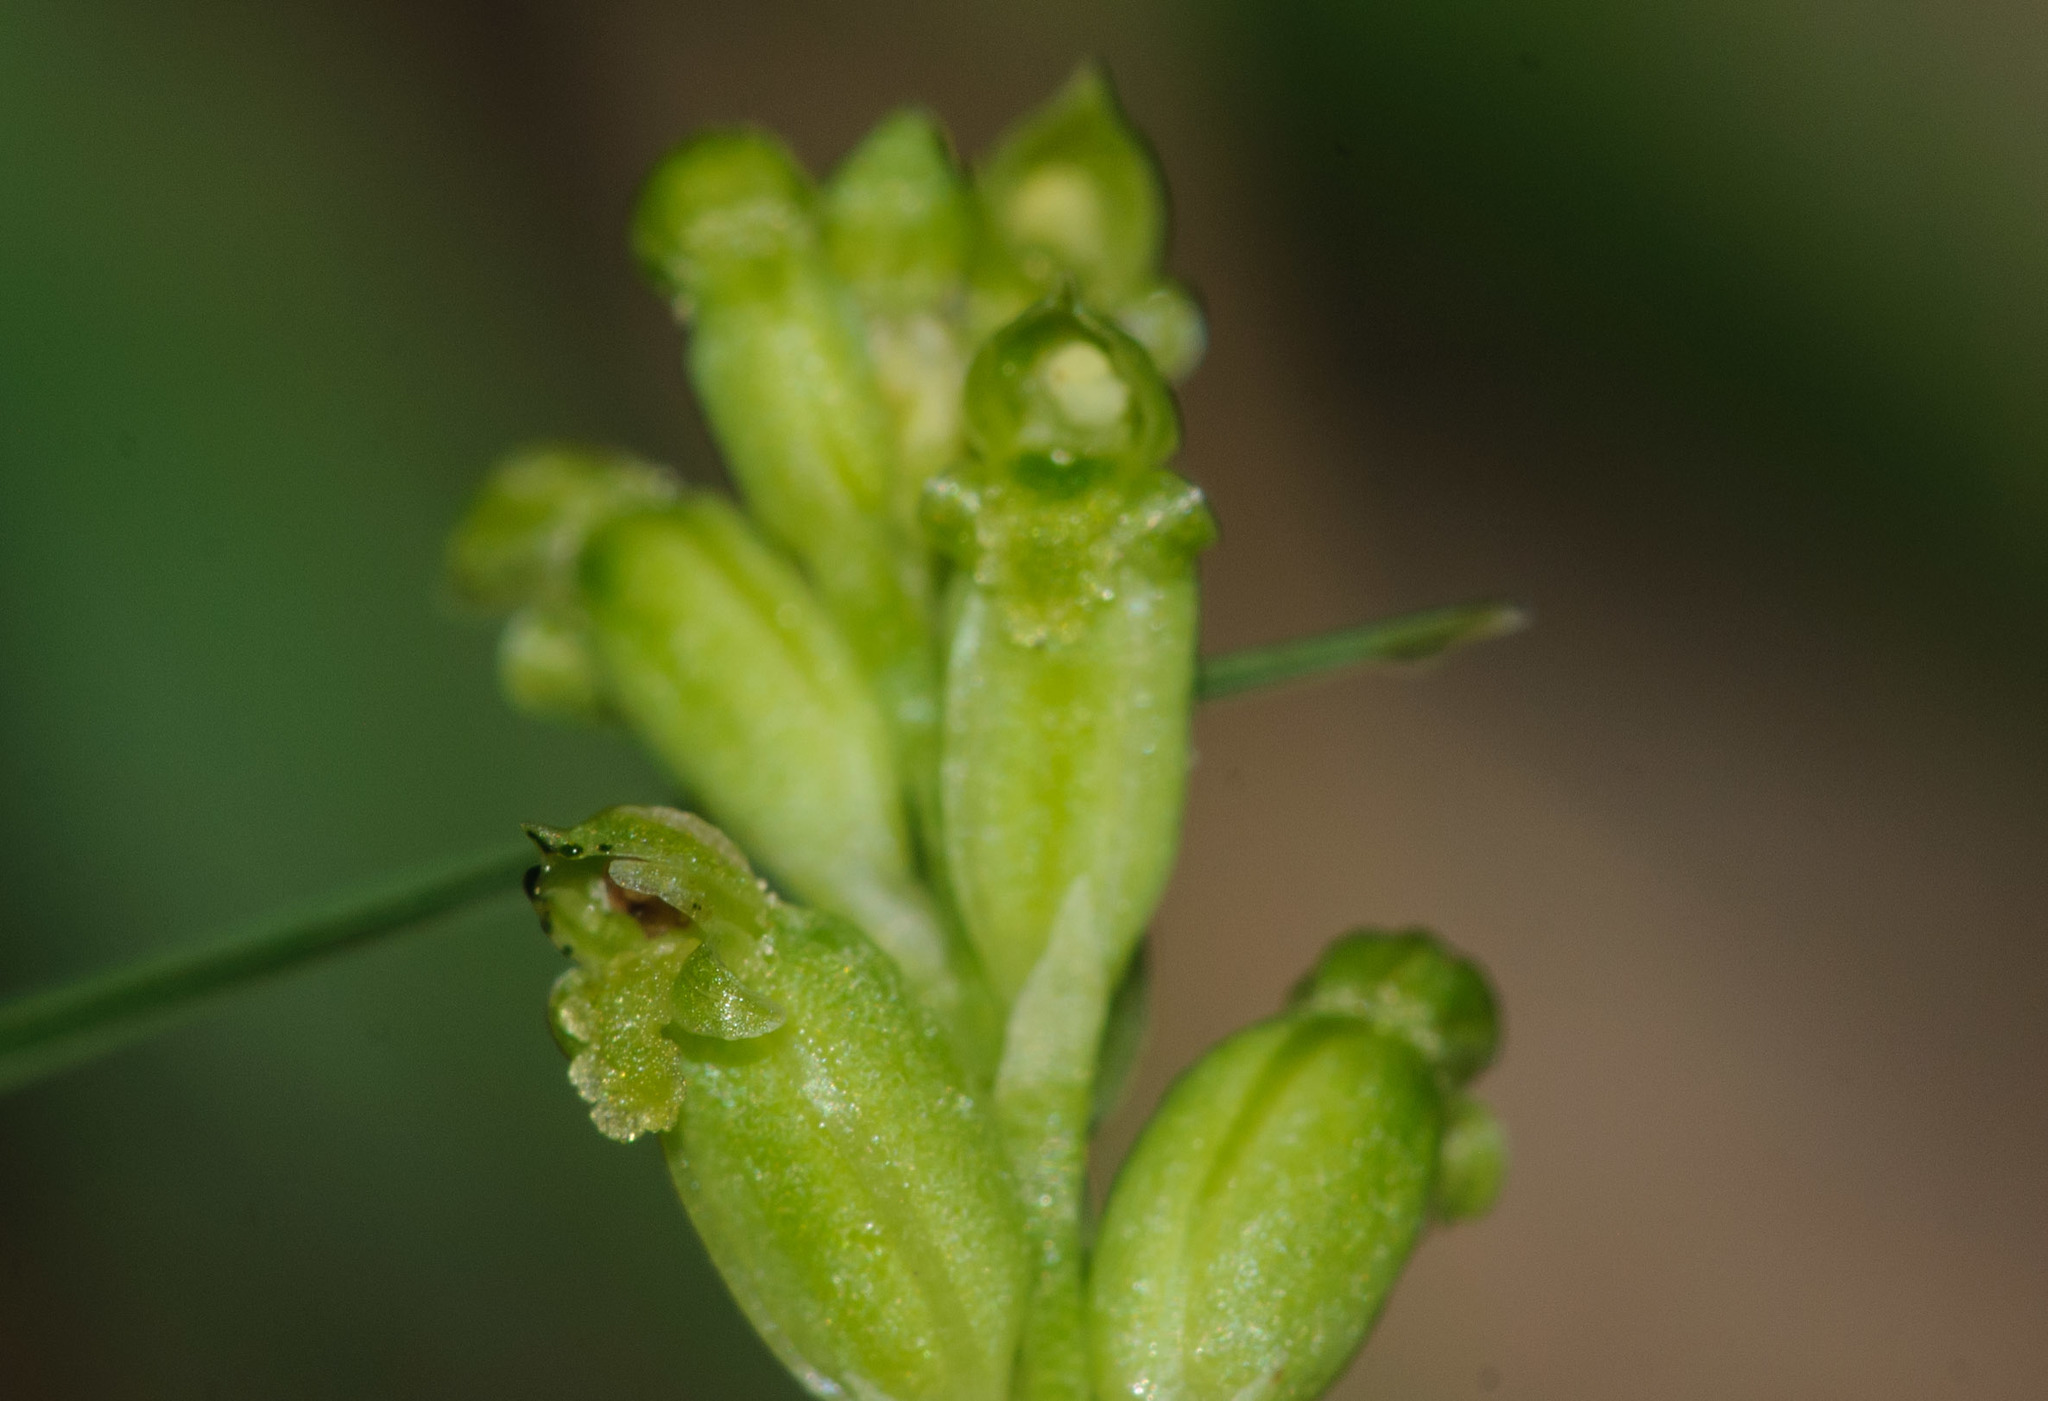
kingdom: Plantae
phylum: Tracheophyta
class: Liliopsida
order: Asparagales
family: Orchidaceae
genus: Microtis
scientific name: Microtis unifolia
